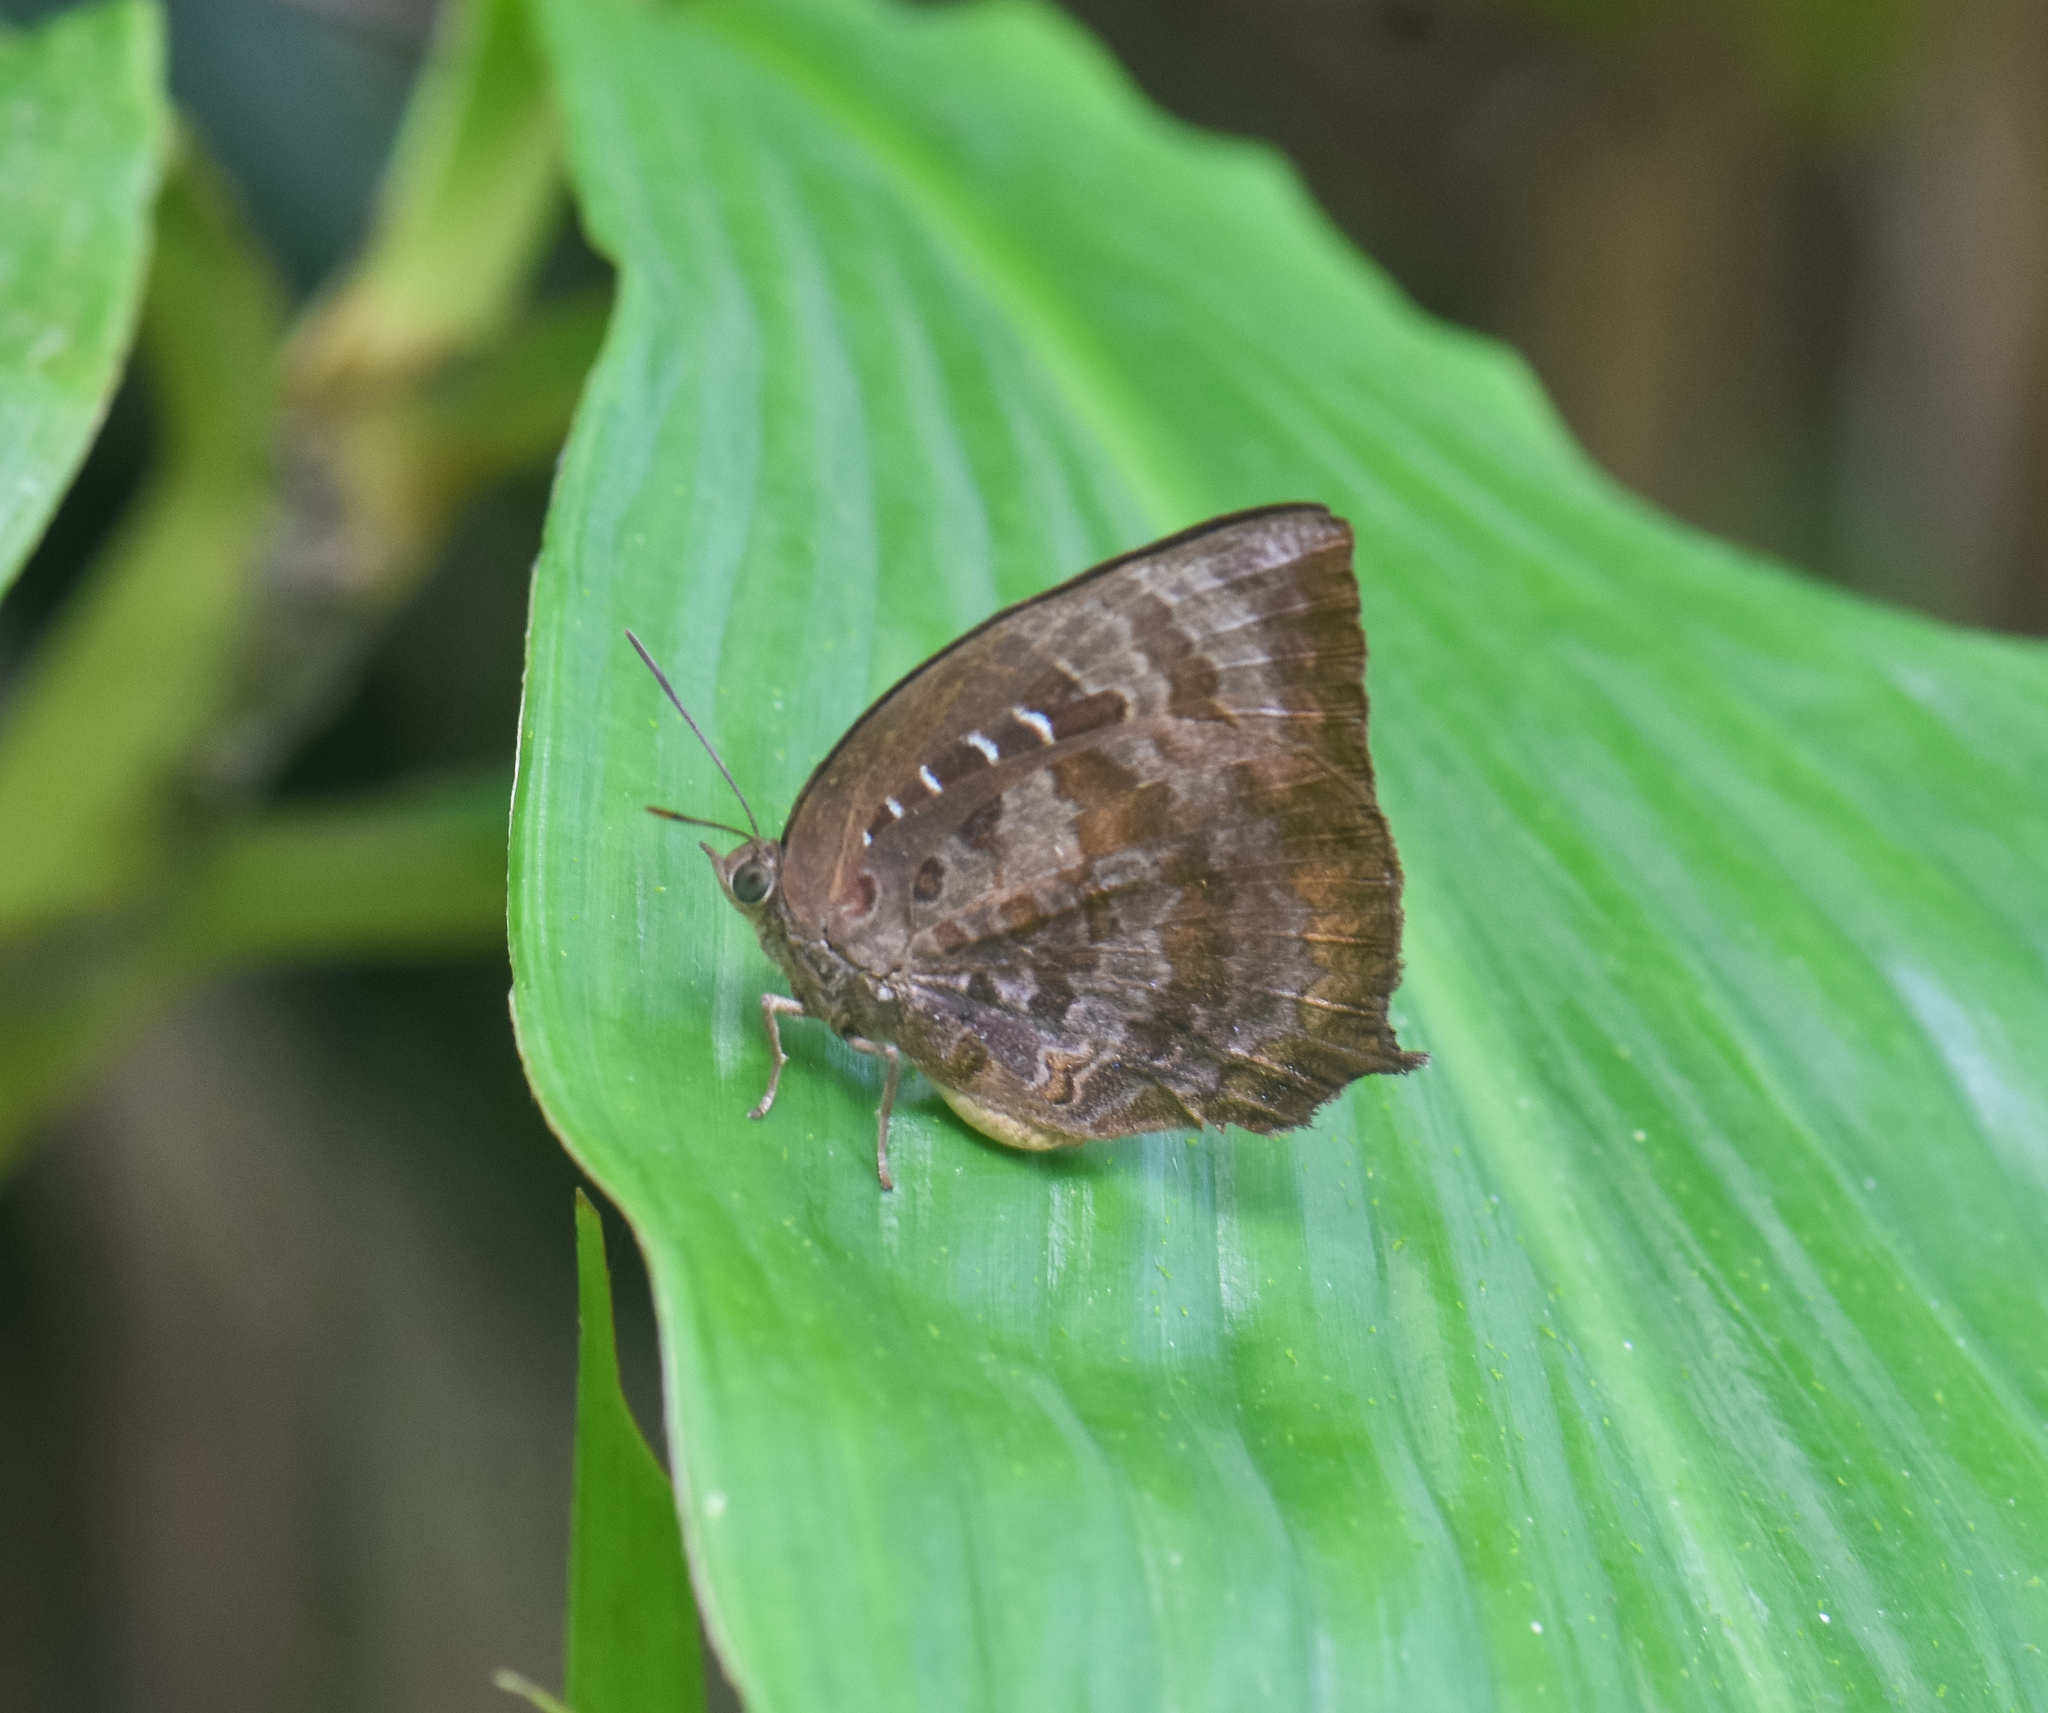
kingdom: Animalia
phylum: Arthropoda
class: Insecta
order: Lepidoptera
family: Lycaenidae
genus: Arhopala
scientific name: Arhopala centaurus
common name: Dull oak-blue
